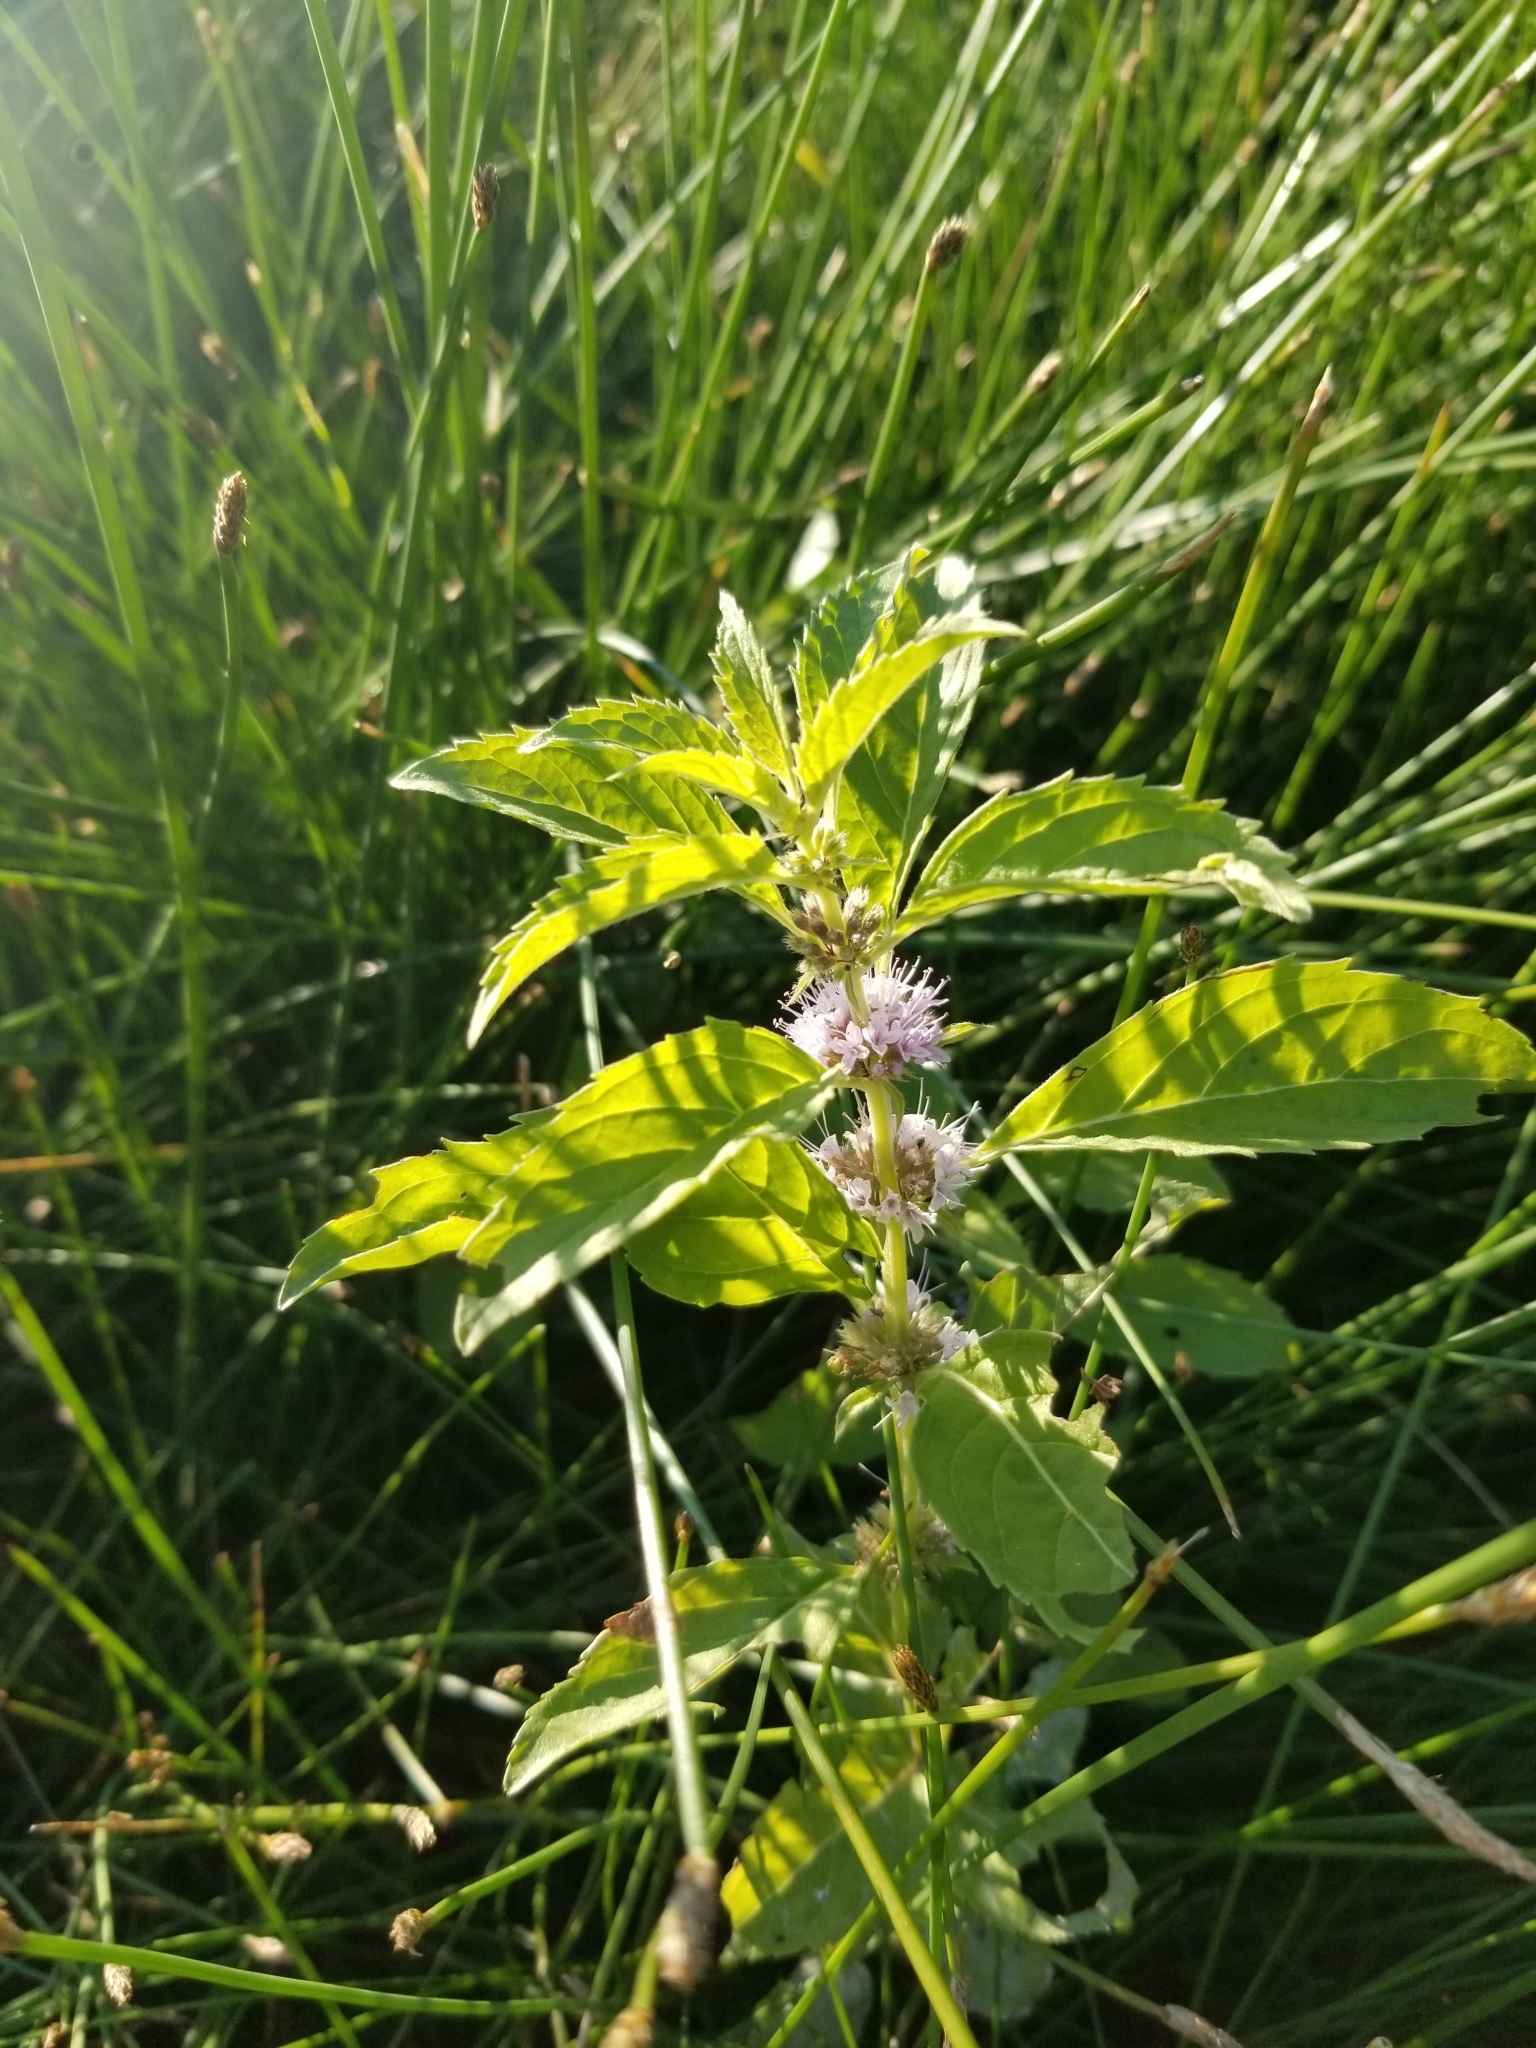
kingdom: Plantae
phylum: Tracheophyta
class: Magnoliopsida
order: Lamiales
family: Lamiaceae
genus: Mentha
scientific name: Mentha canadensis
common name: American corn mint
